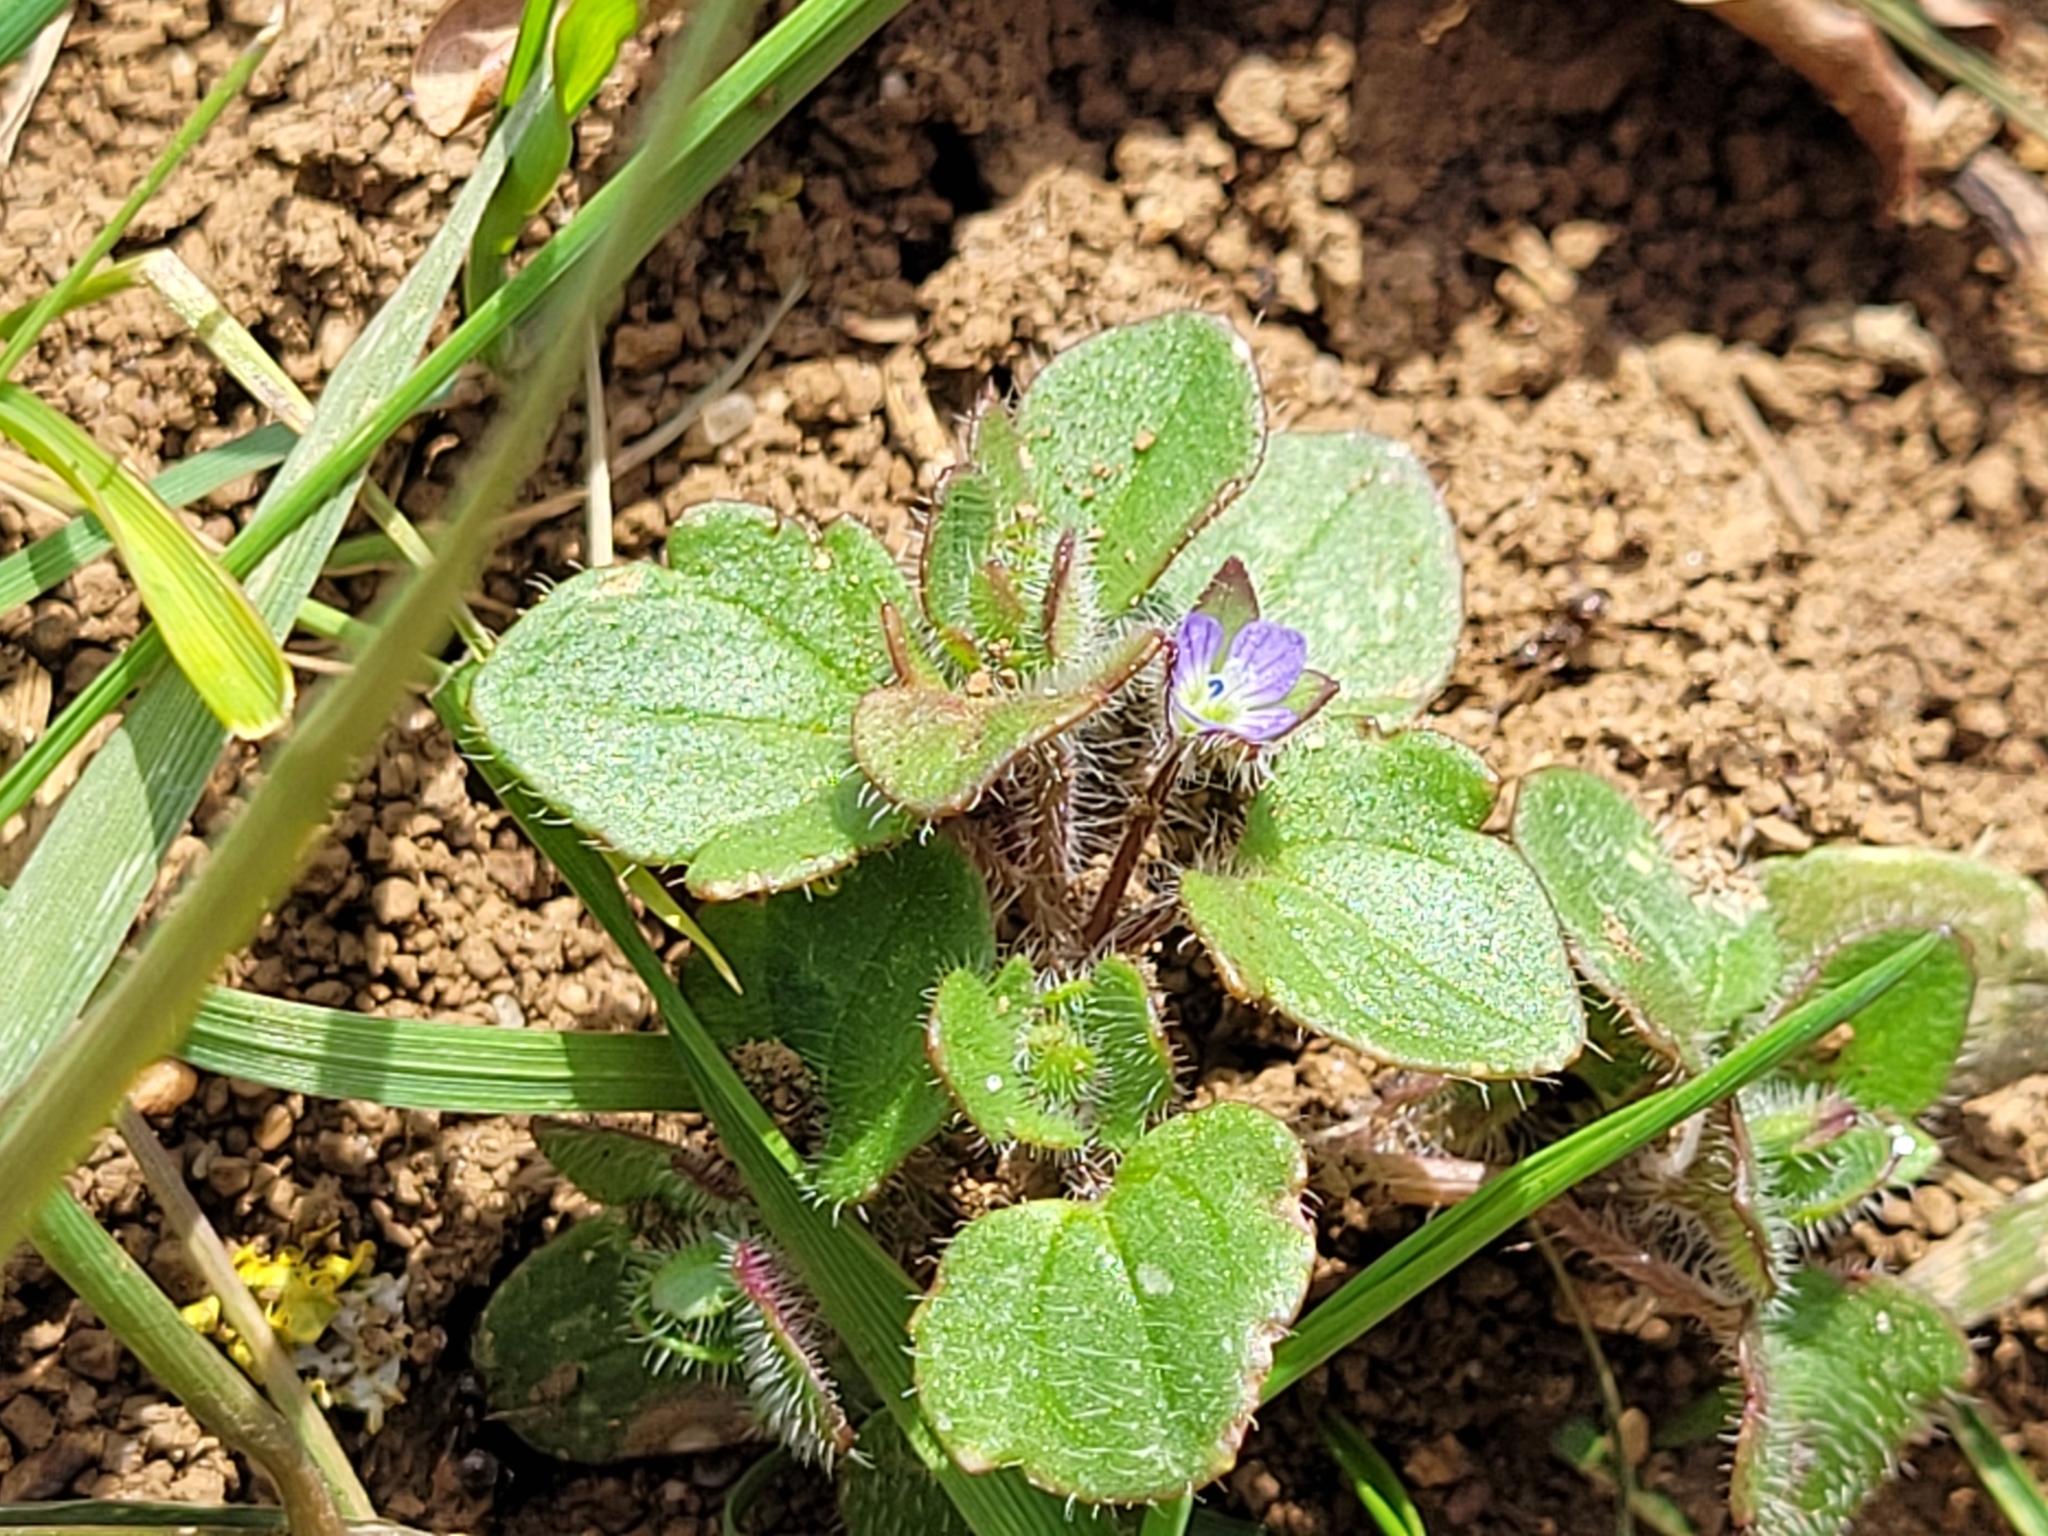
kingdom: Plantae
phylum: Tracheophyta
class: Magnoliopsida
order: Lamiales
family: Plantaginaceae
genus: Veronica
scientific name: Veronica
